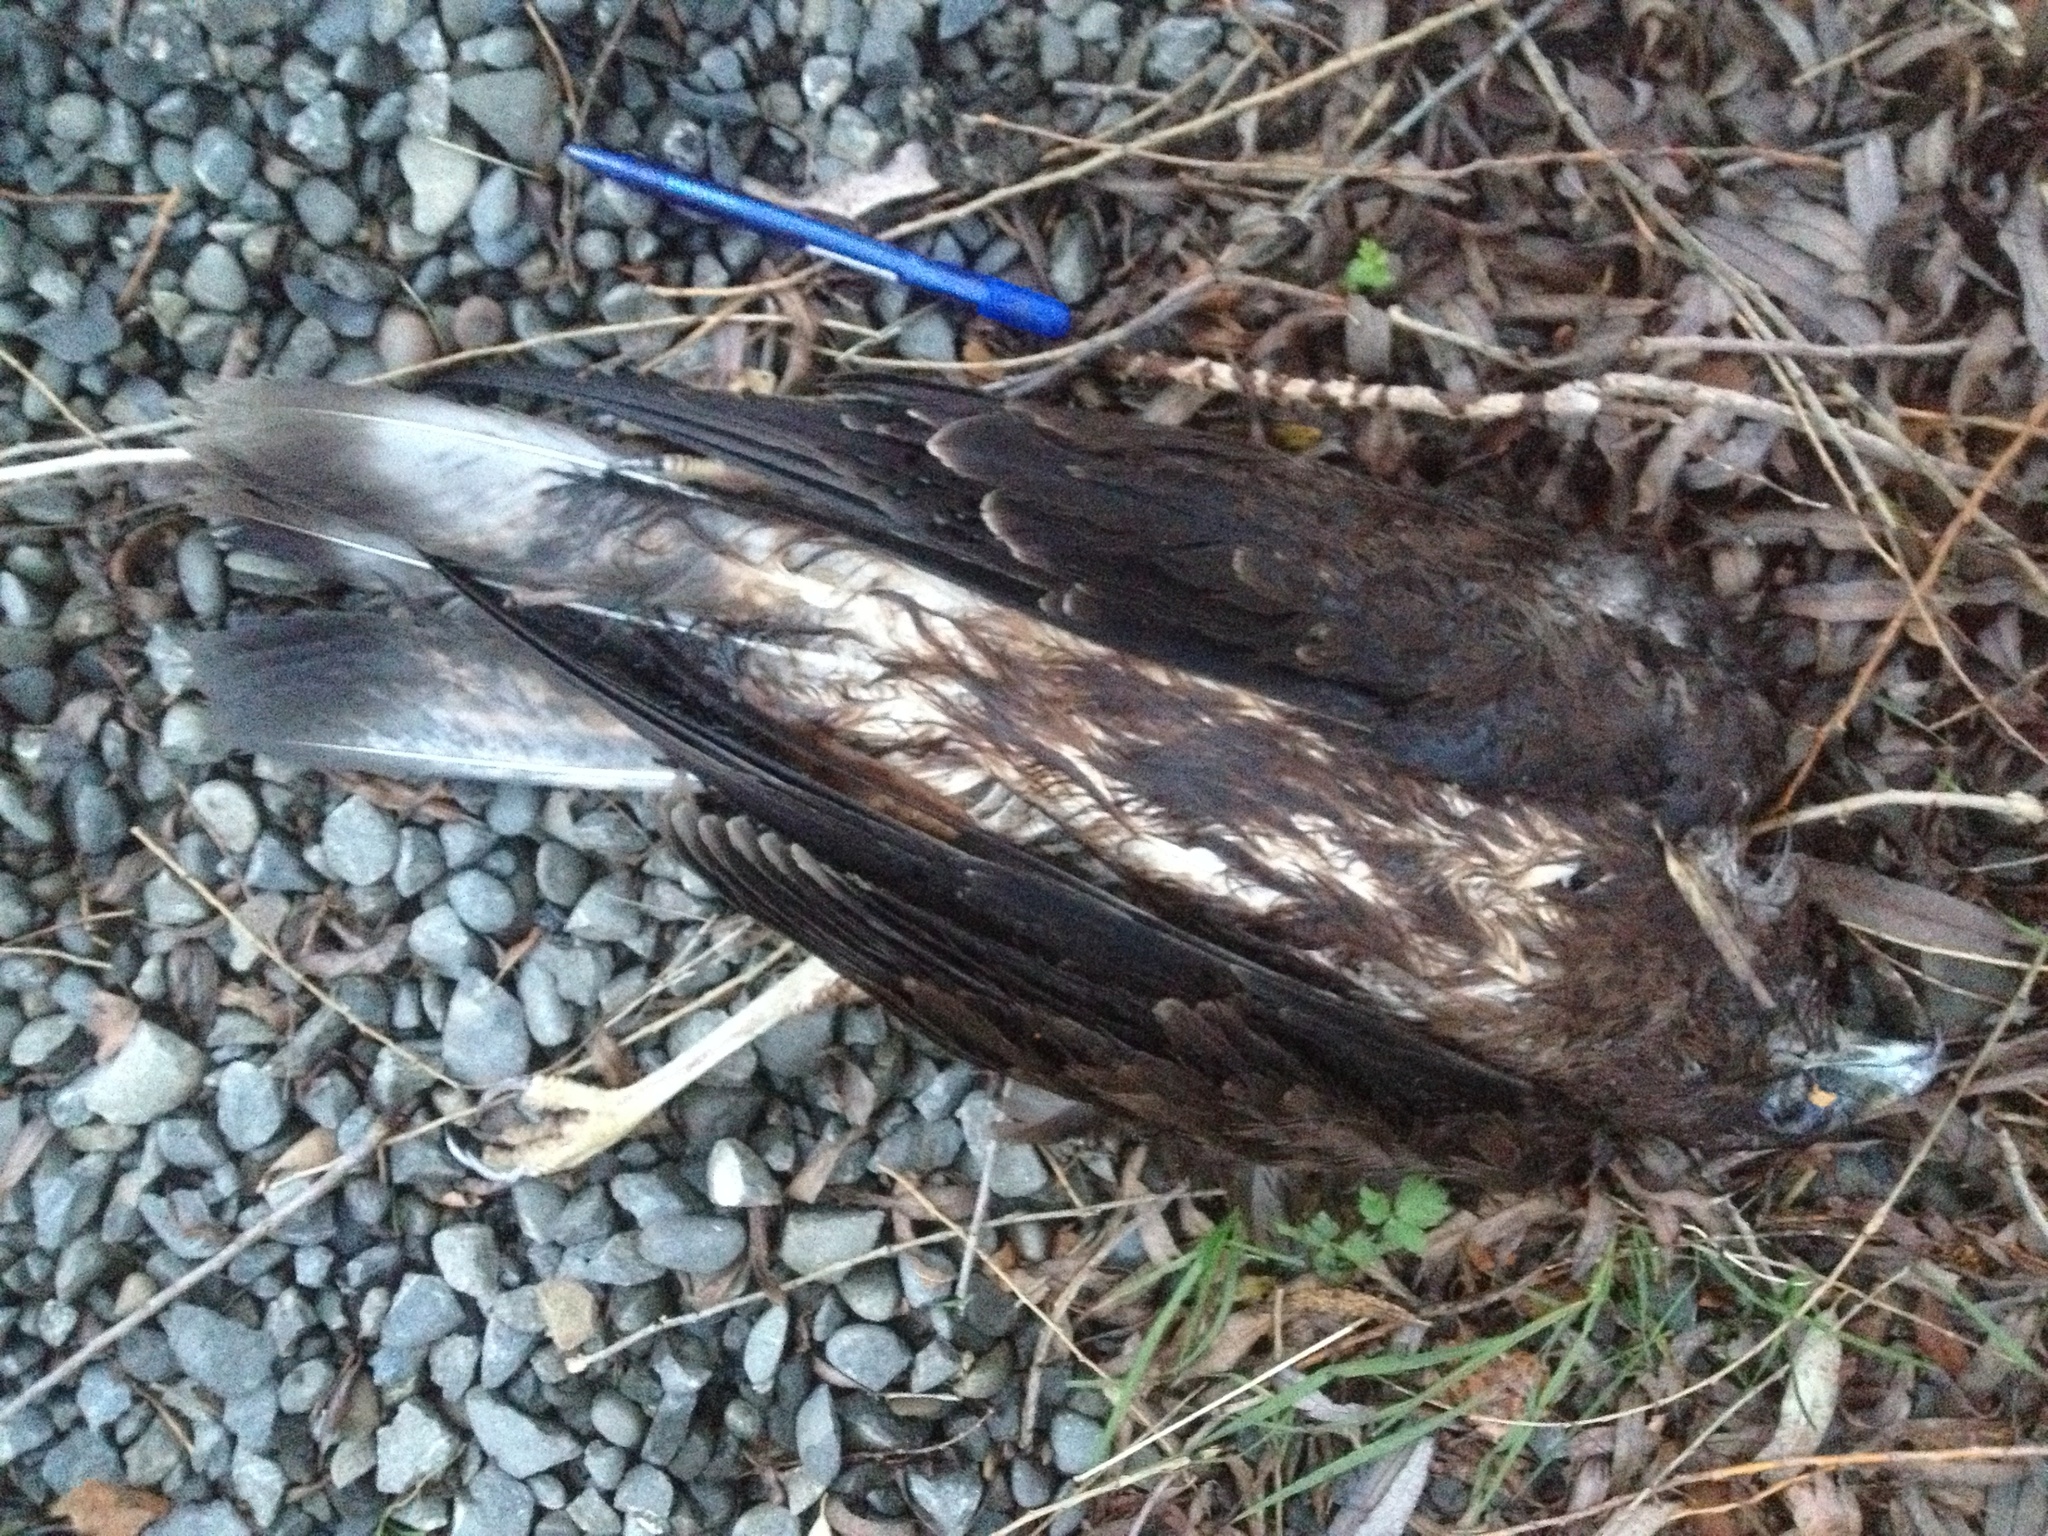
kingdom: Animalia
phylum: Chordata
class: Aves
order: Accipitriformes
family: Accipitridae
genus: Circus
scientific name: Circus approximans
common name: Swamp harrier
